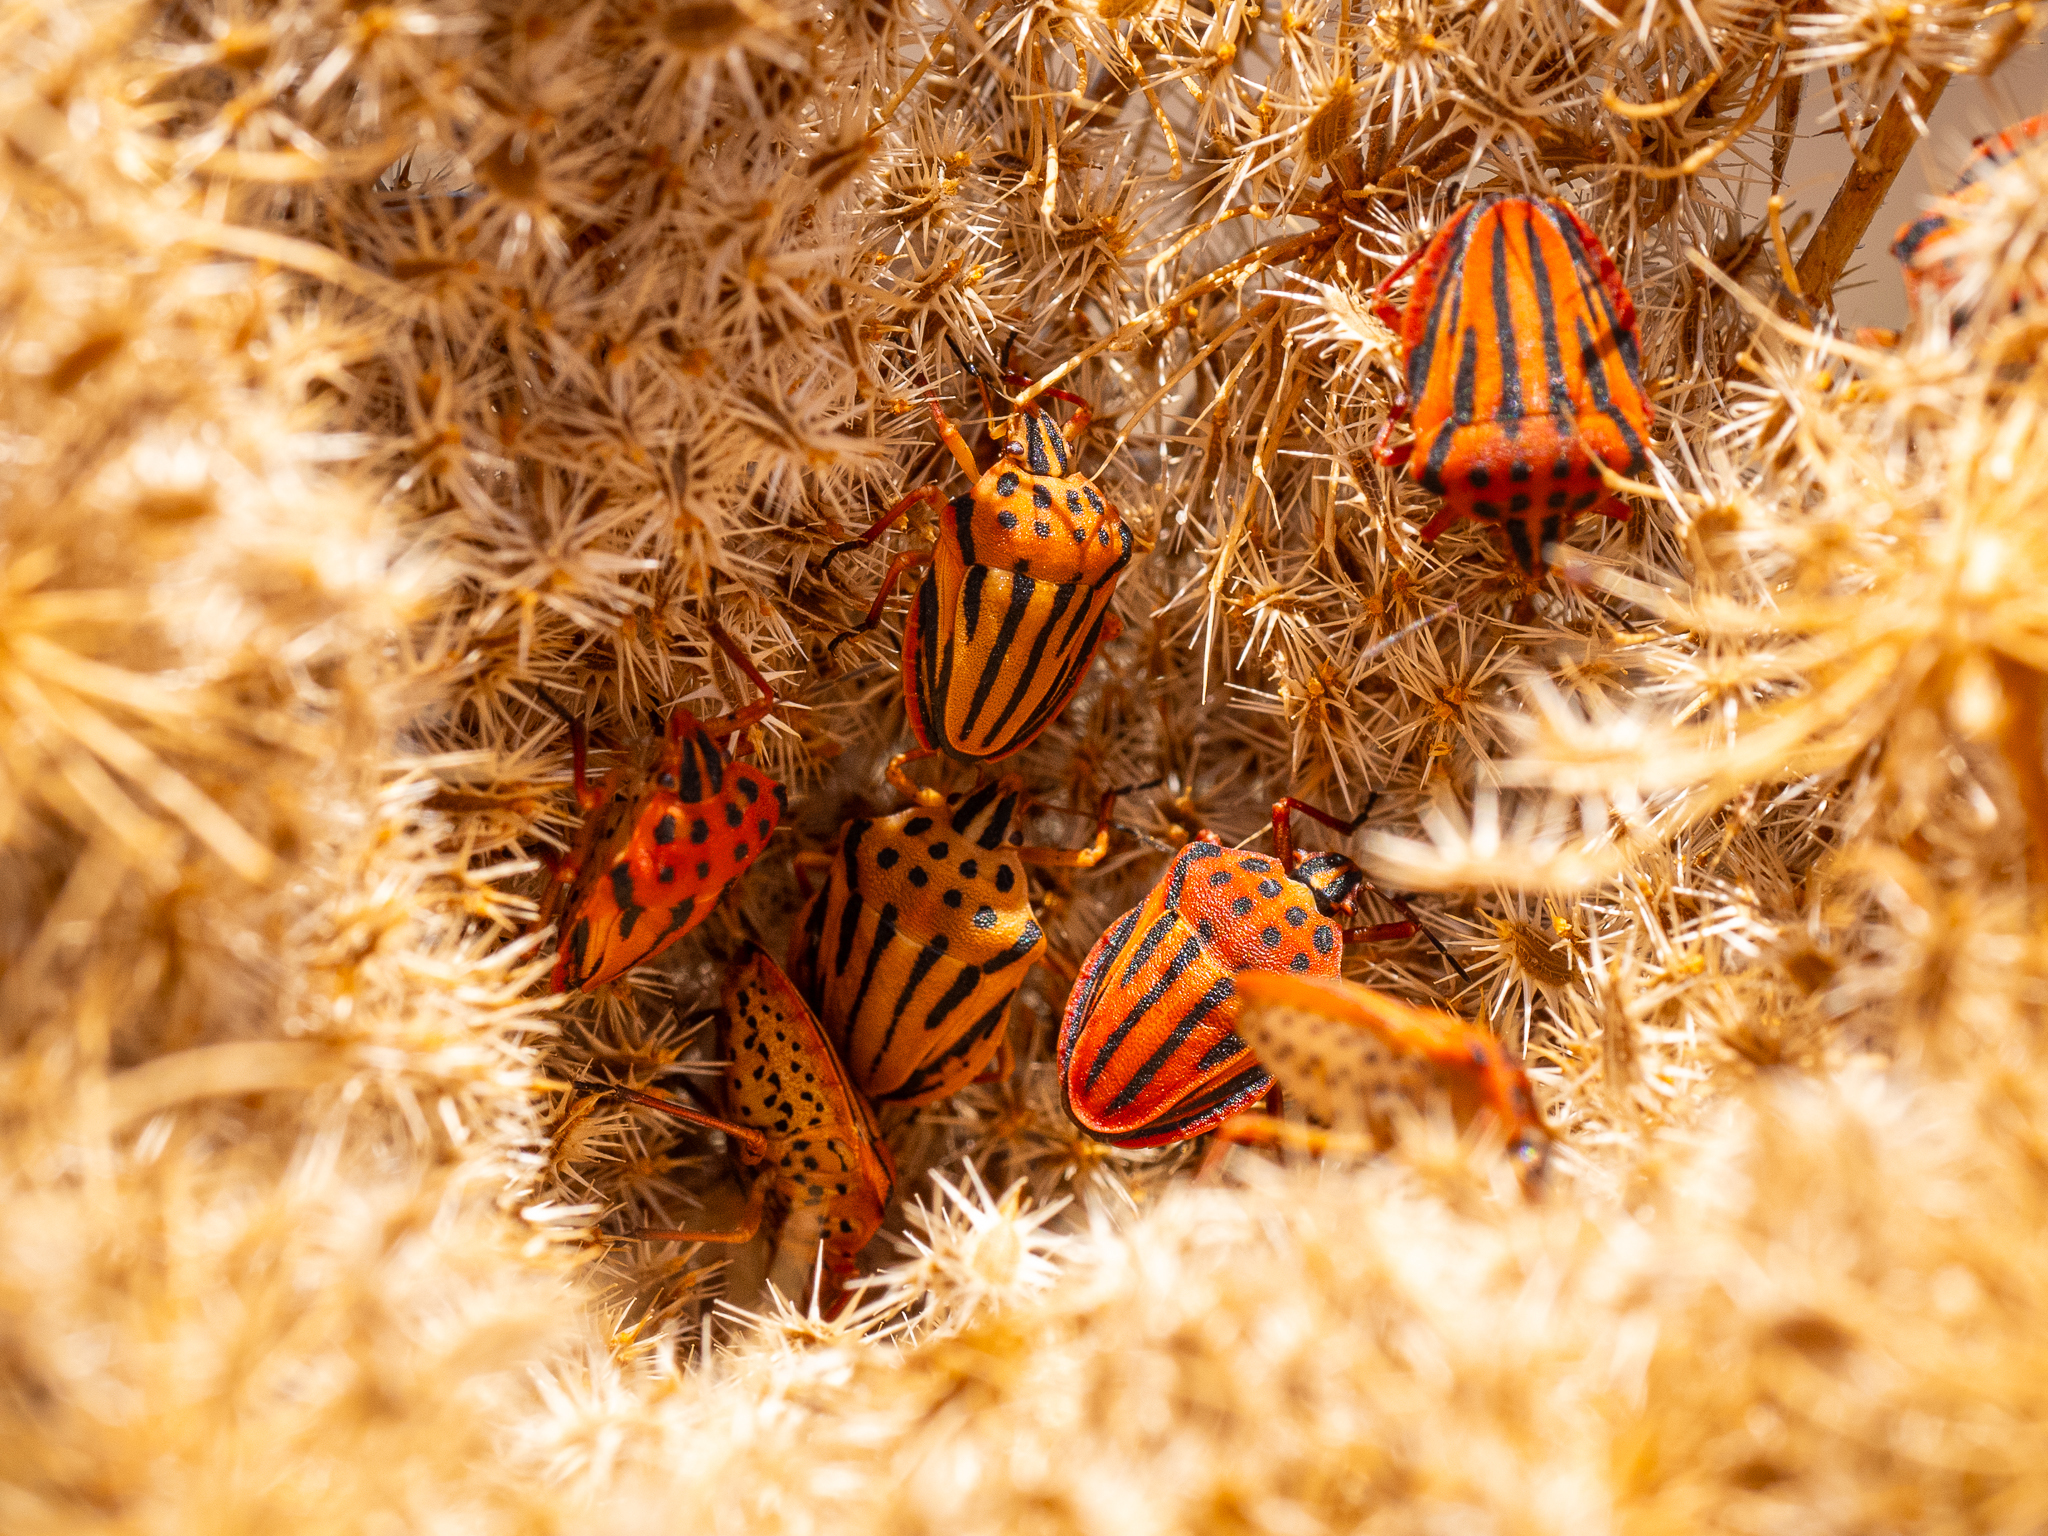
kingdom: Animalia
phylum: Arthropoda
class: Insecta
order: Hemiptera
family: Pentatomidae
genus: Graphosoma
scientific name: Graphosoma semipunctatum
